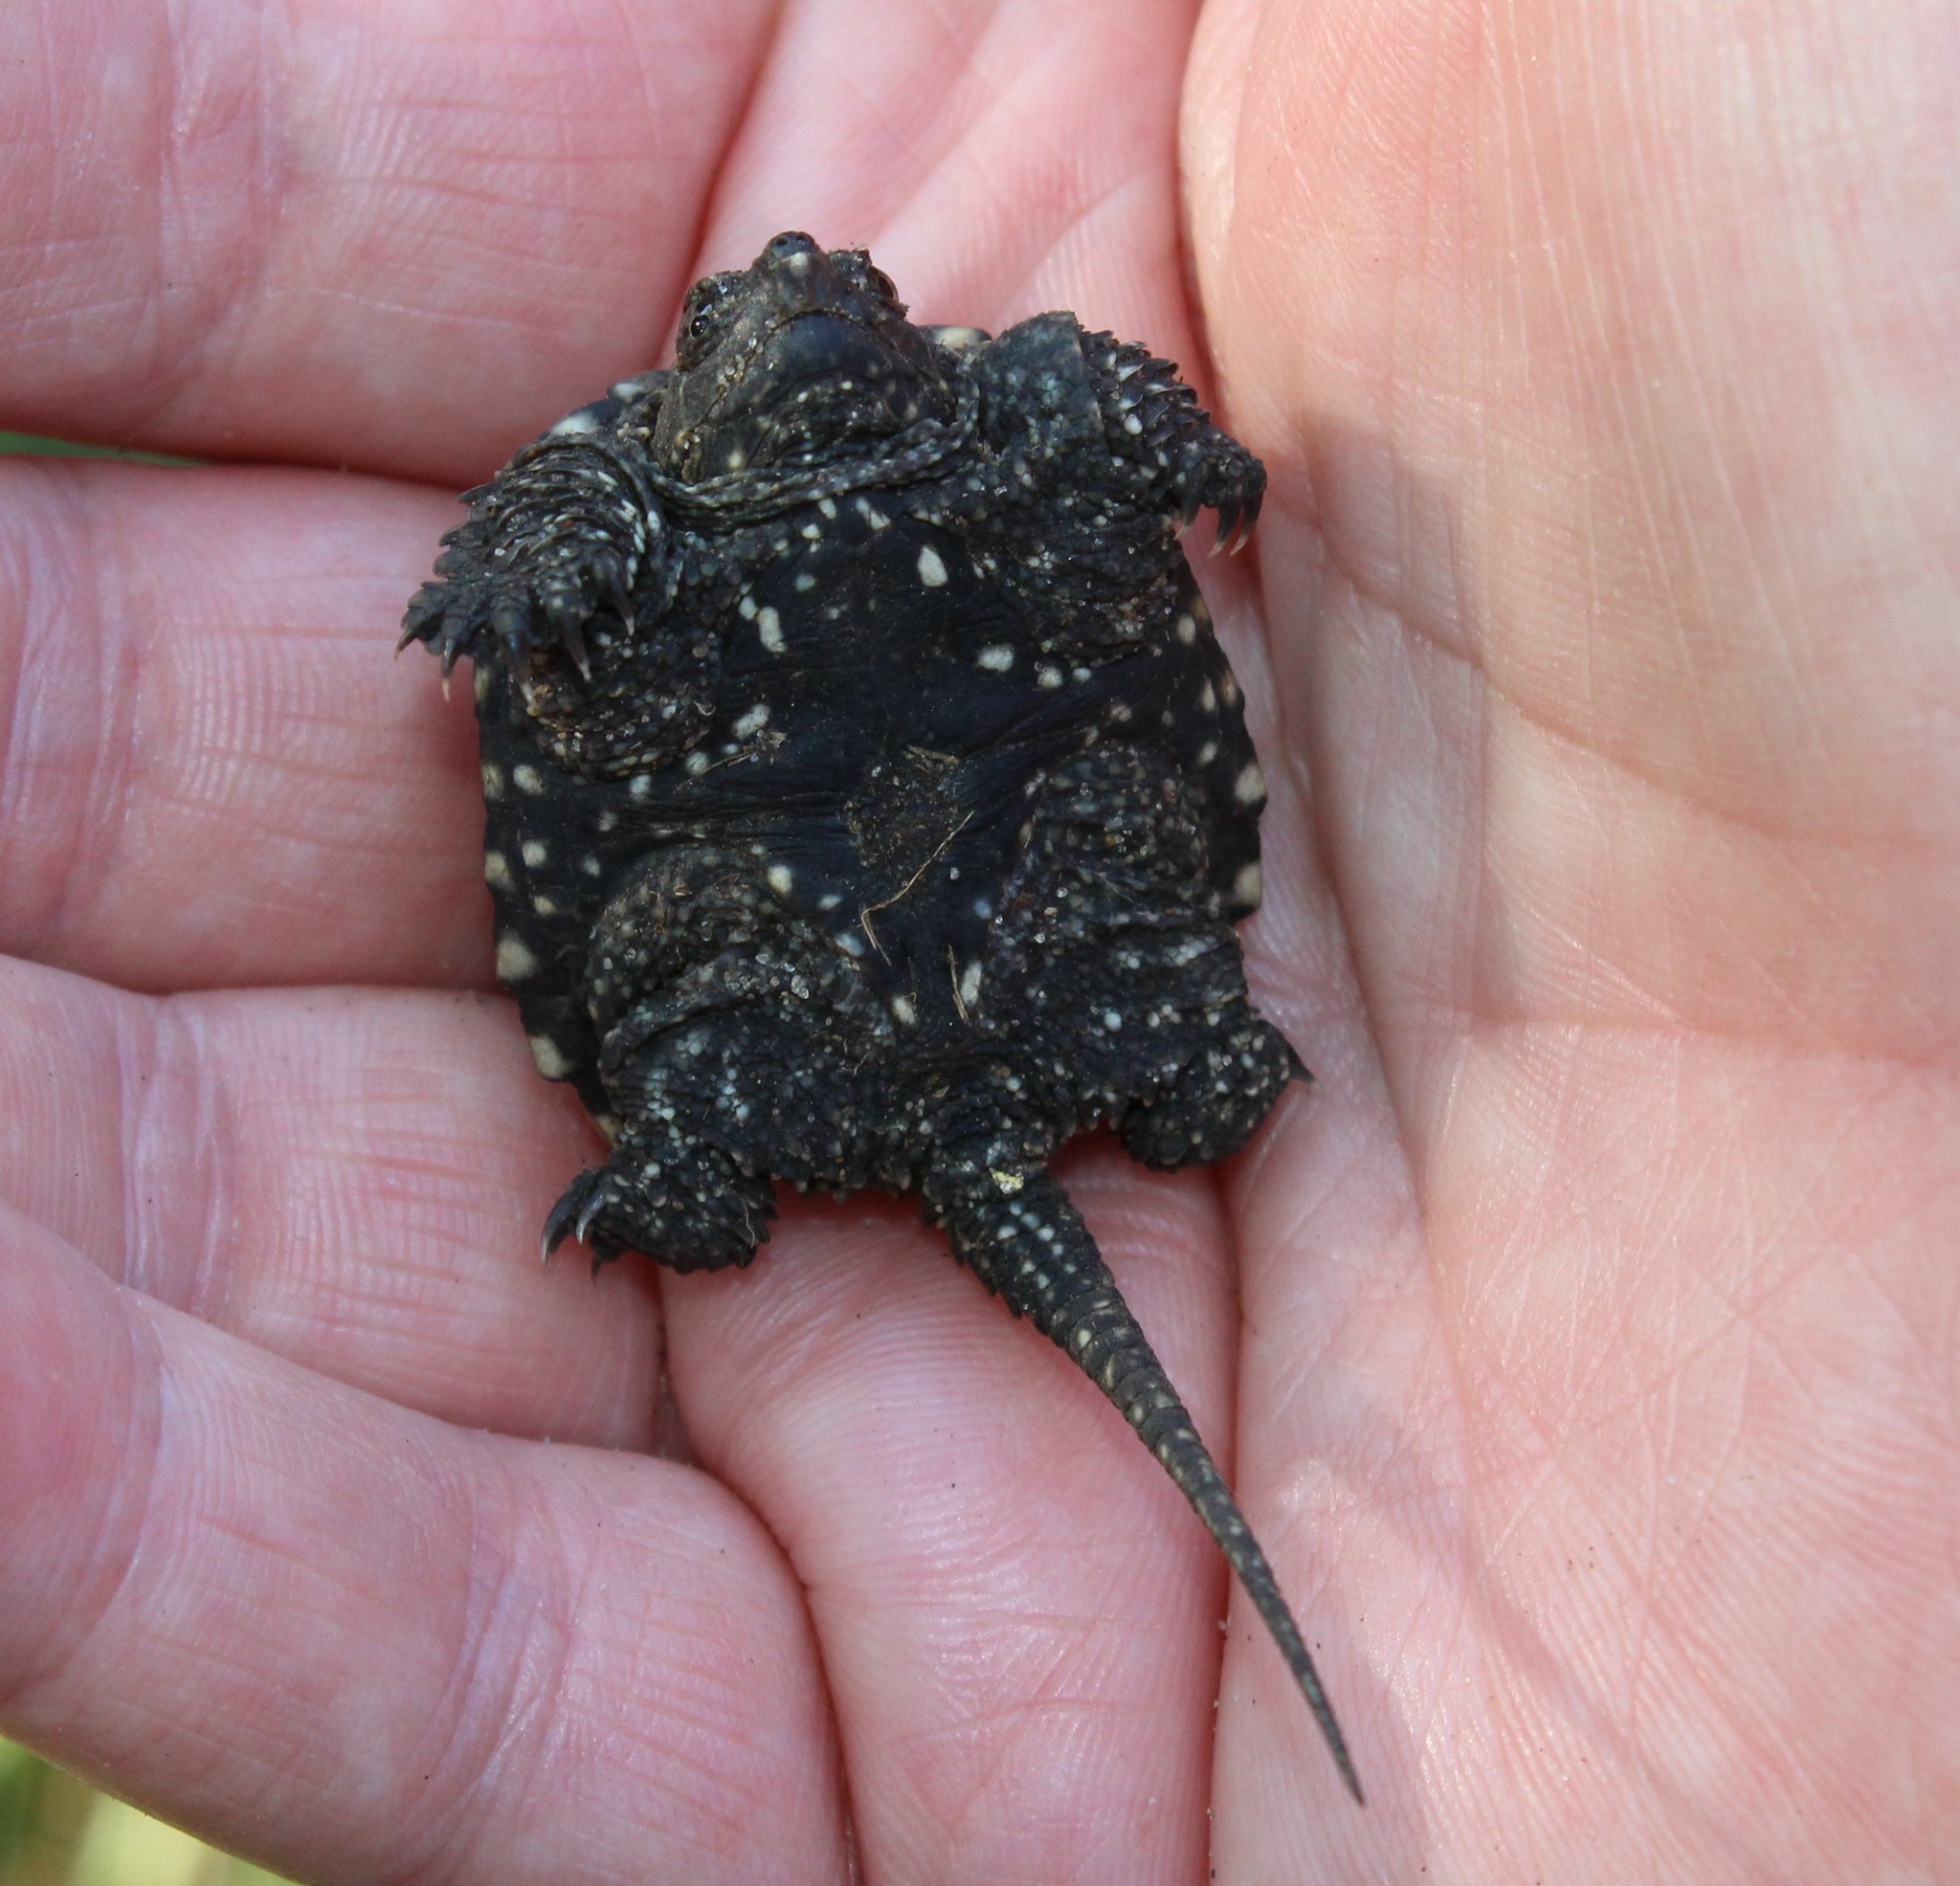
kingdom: Animalia
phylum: Chordata
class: Testudines
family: Chelydridae
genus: Chelydra
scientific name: Chelydra serpentina
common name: Common snapping turtle
